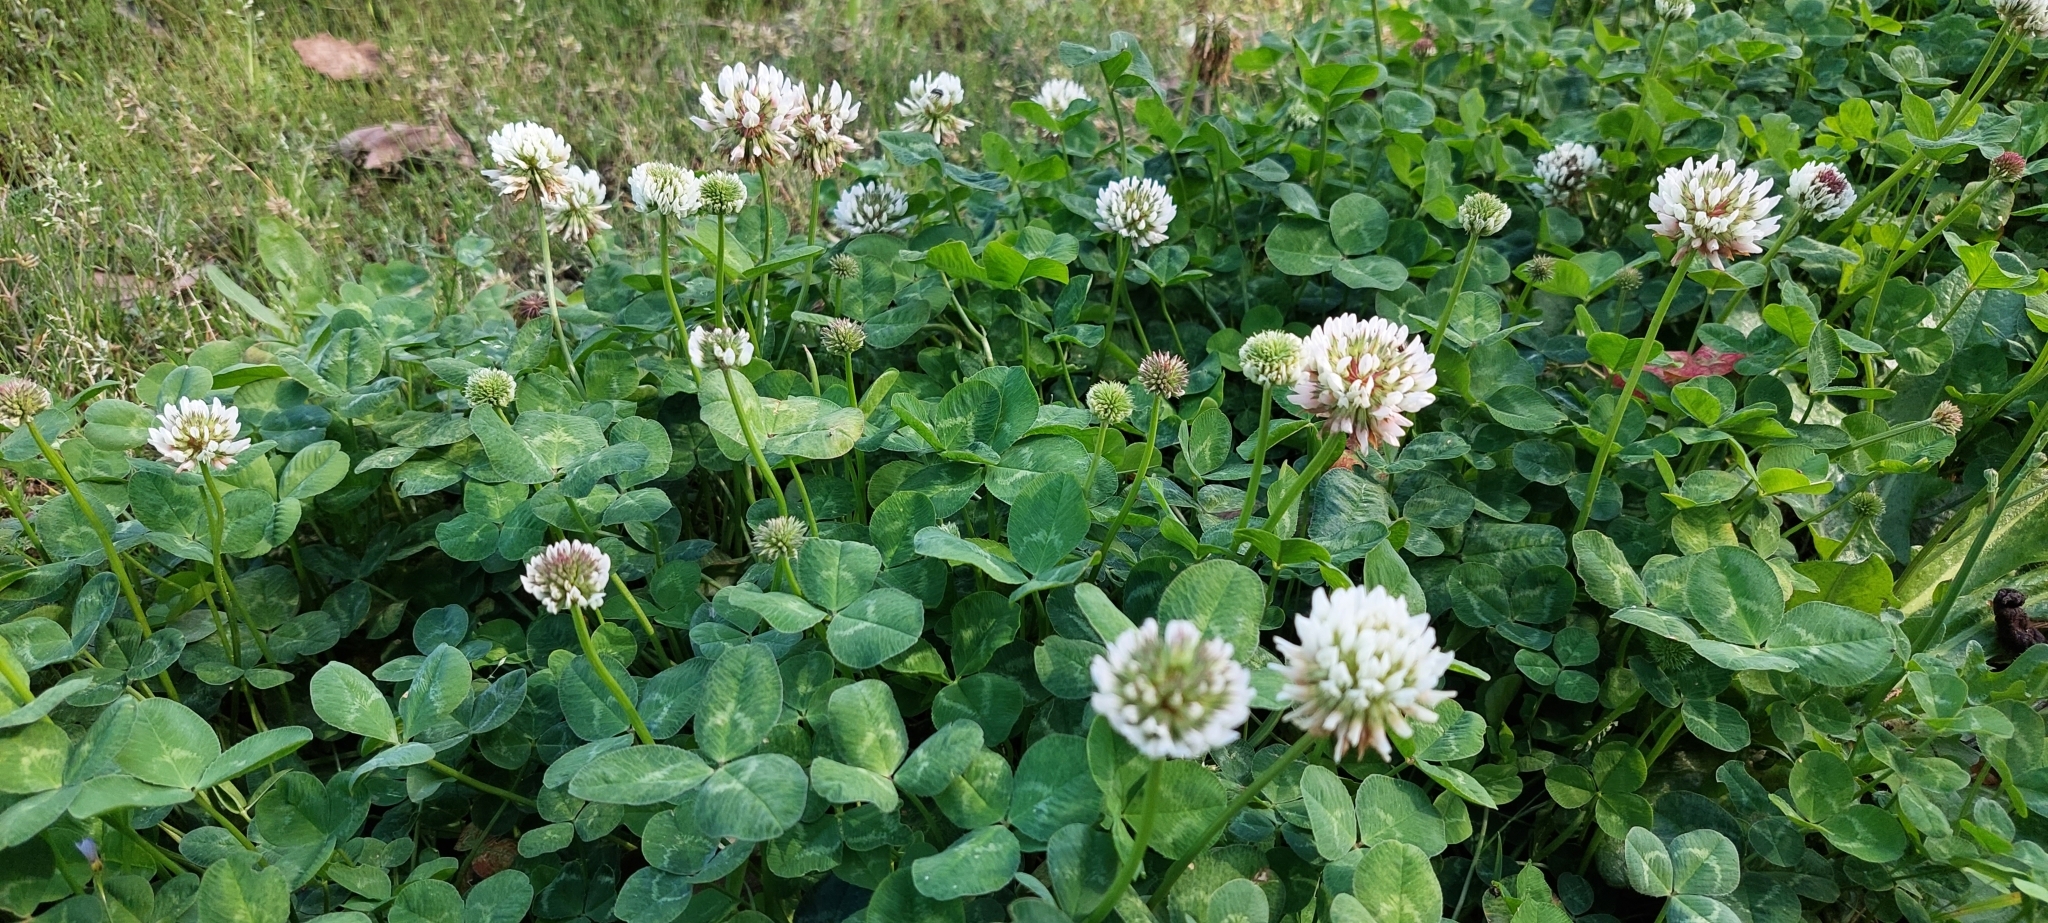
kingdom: Plantae
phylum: Tracheophyta
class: Magnoliopsida
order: Fabales
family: Fabaceae
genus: Trifolium
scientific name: Trifolium repens
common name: White clover
